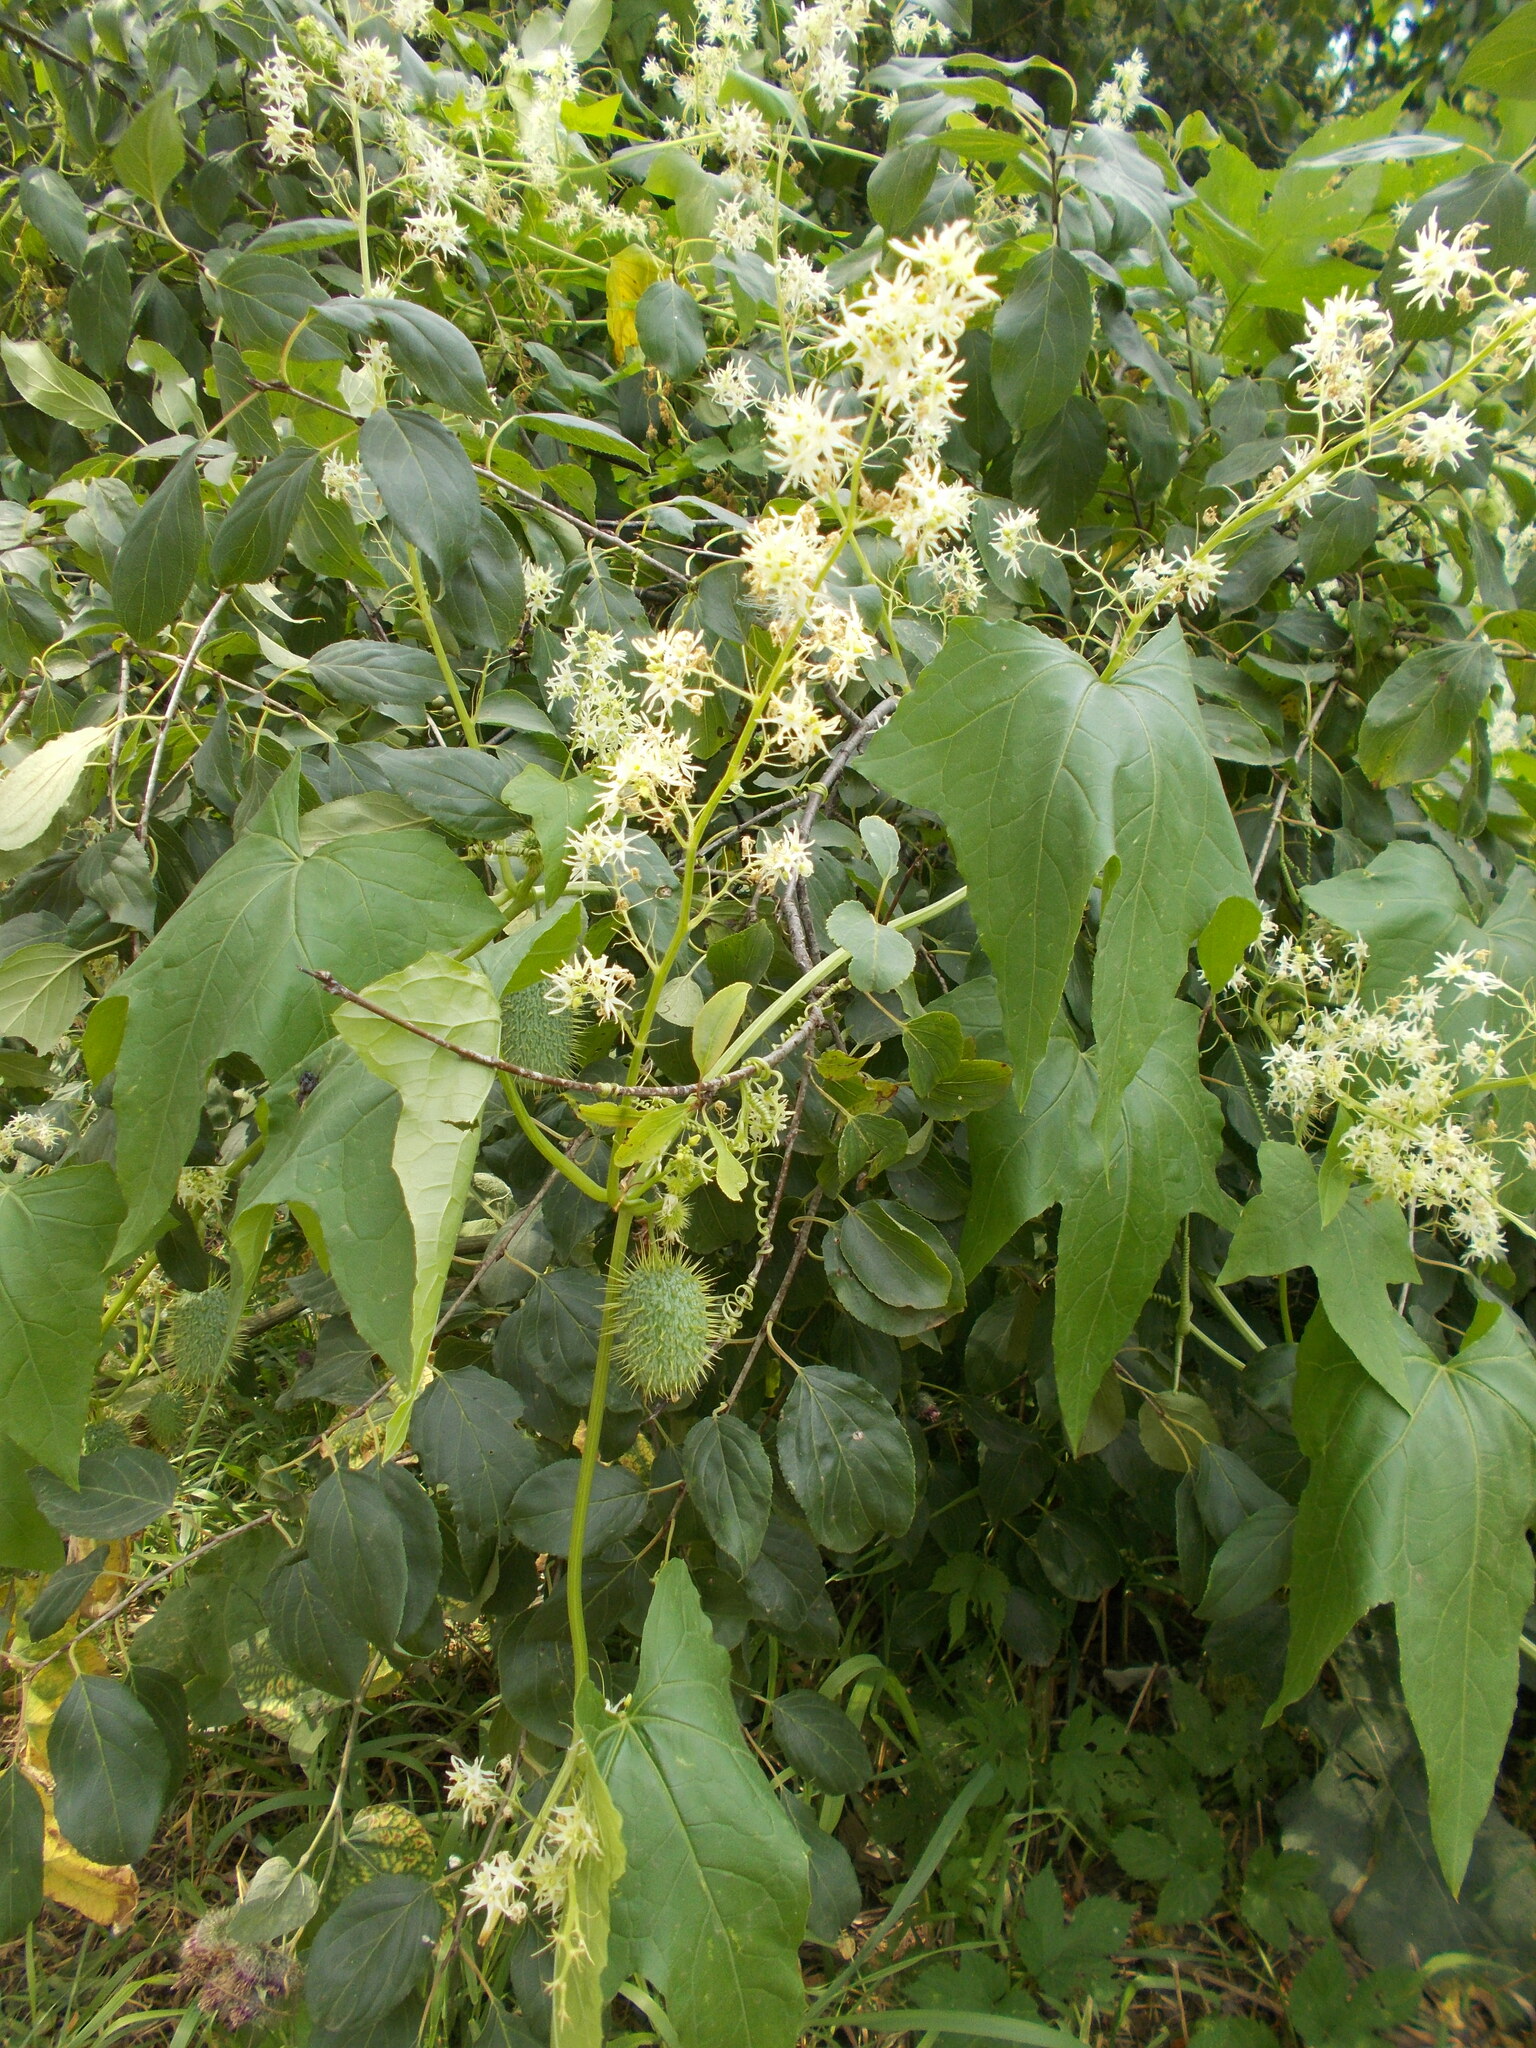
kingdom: Plantae
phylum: Tracheophyta
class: Magnoliopsida
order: Cucurbitales
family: Cucurbitaceae
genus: Echinocystis
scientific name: Echinocystis lobata
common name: Wild cucumber
